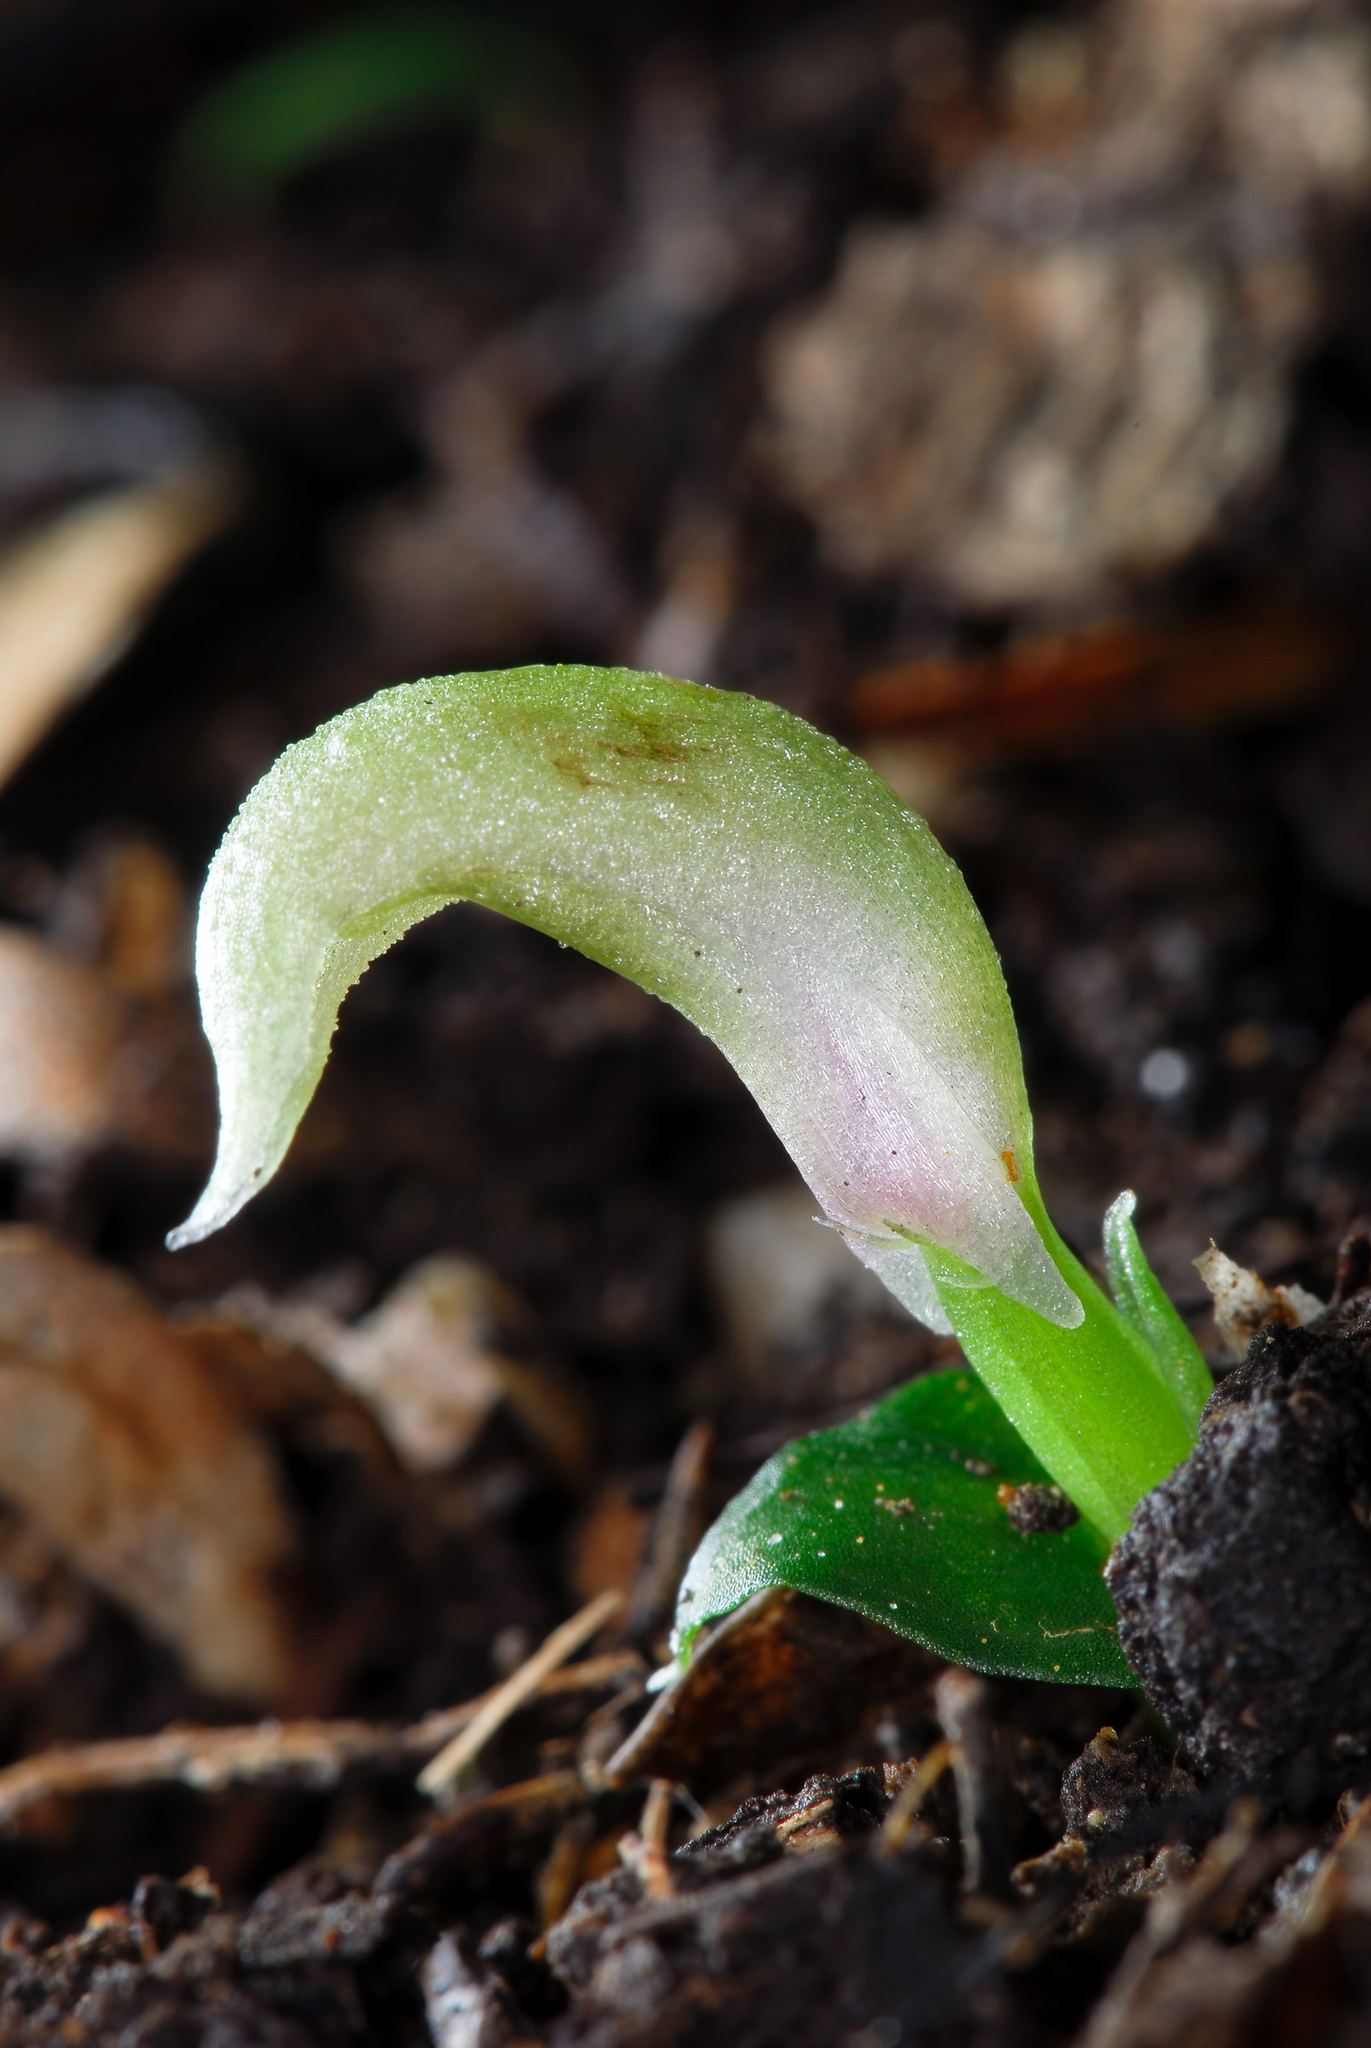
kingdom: Plantae
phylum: Tracheophyta
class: Liliopsida
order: Asparagales
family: Orchidaceae
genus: Corybas
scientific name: Corybas cheesemanii
